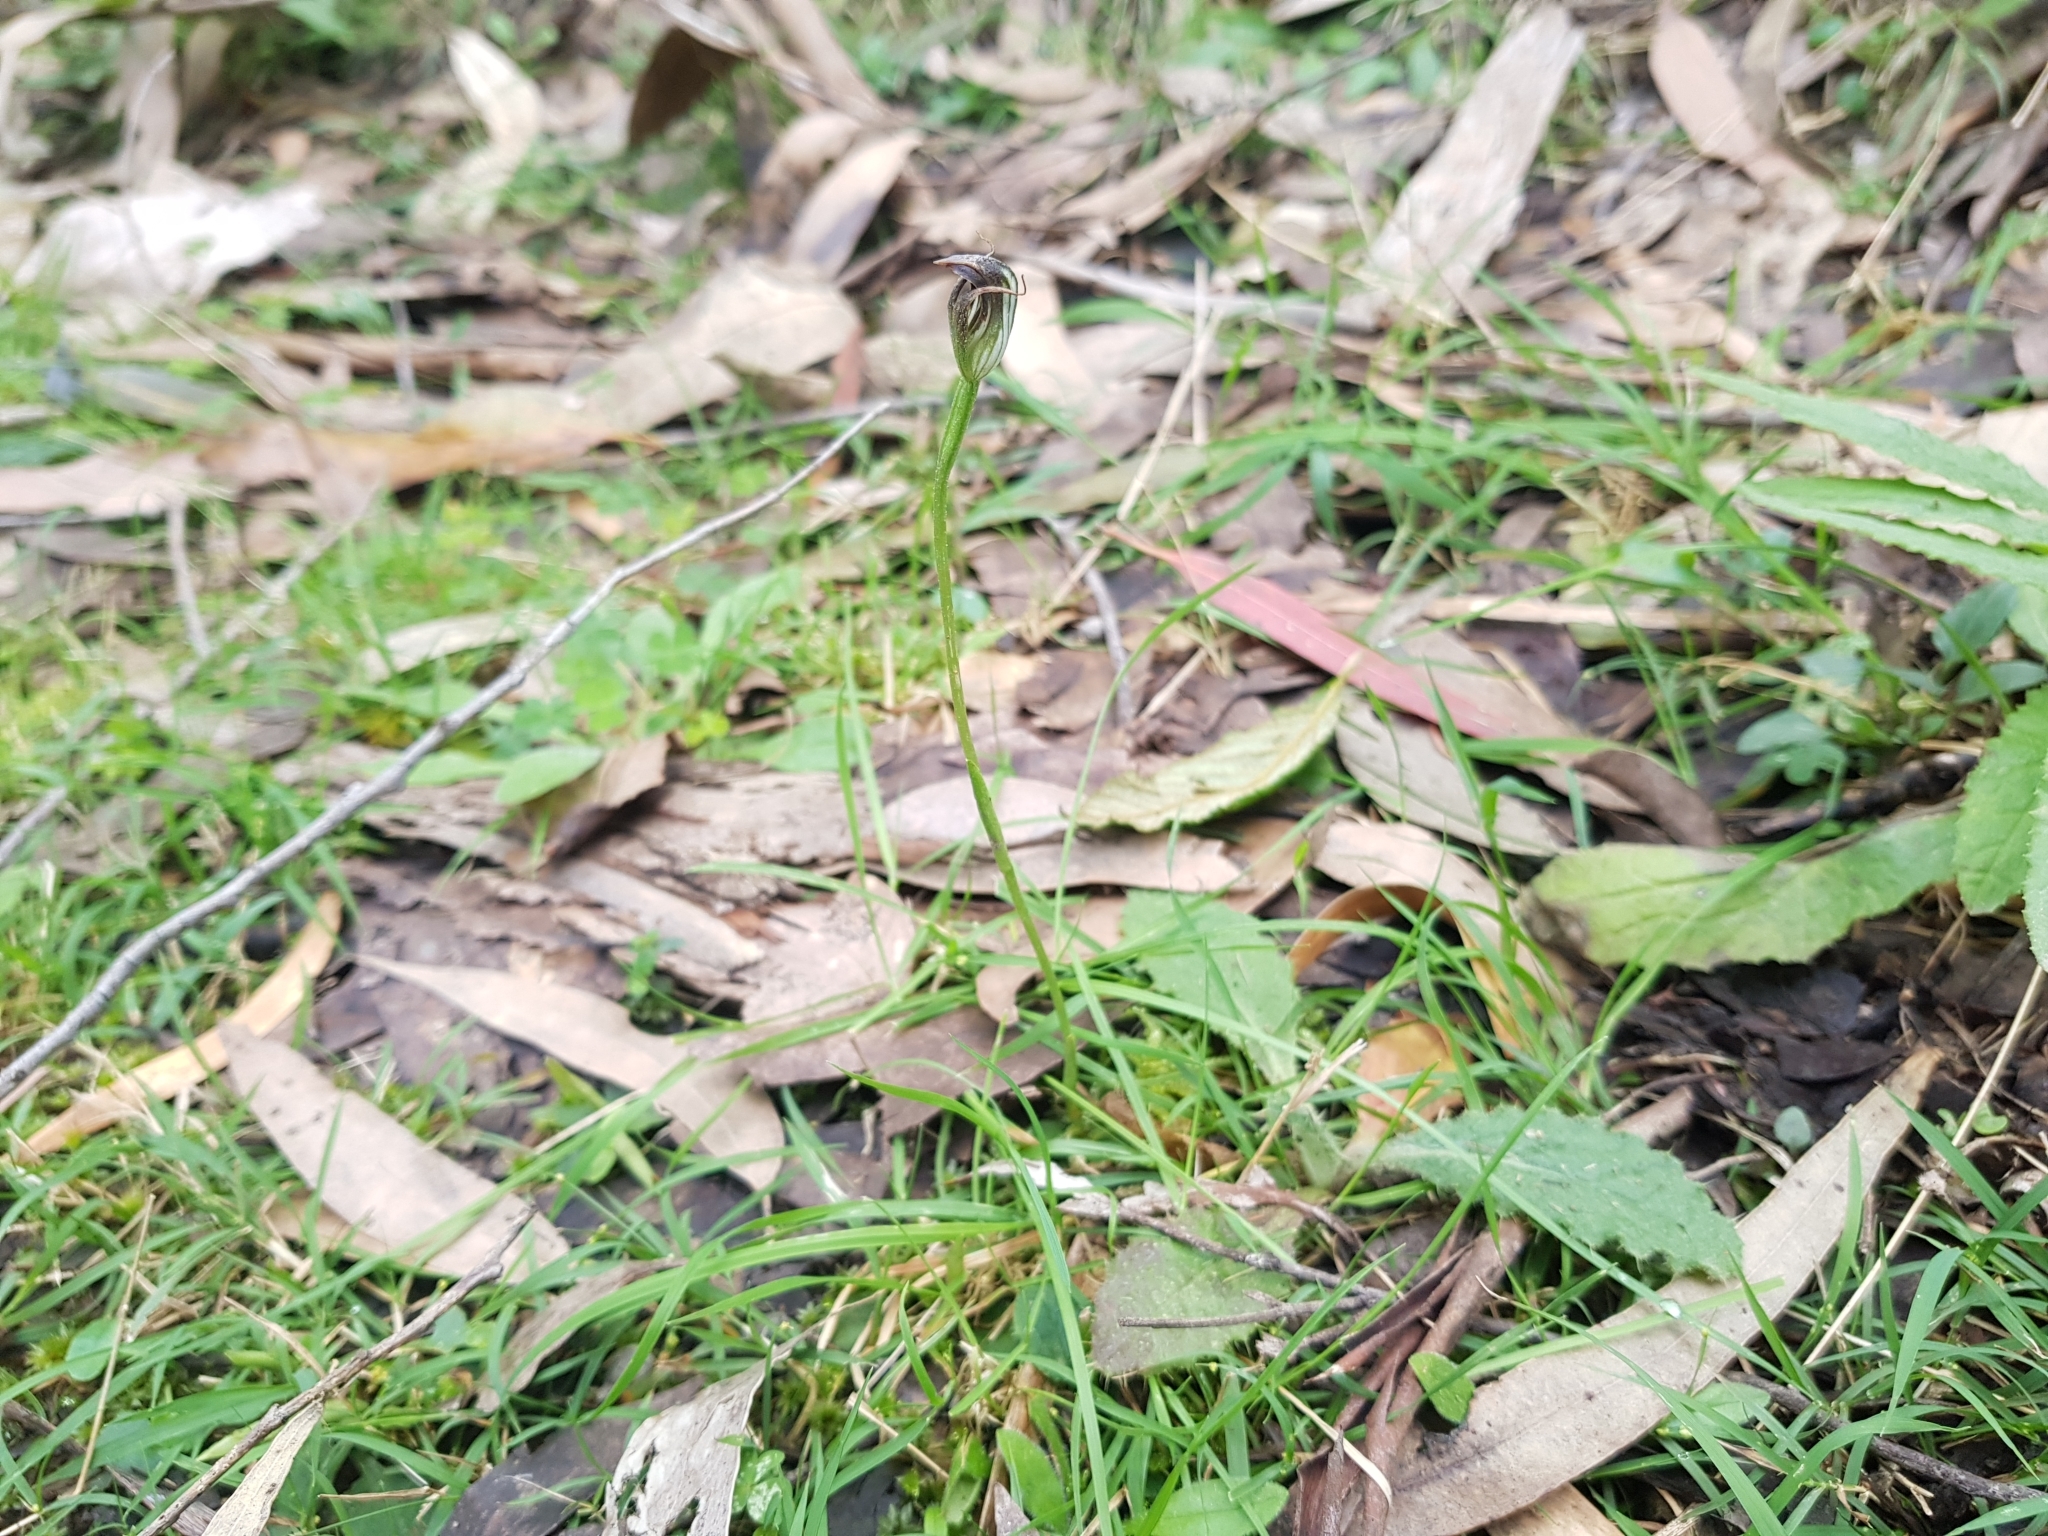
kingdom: Plantae
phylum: Tracheophyta
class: Liliopsida
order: Asparagales
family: Orchidaceae
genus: Pterostylis
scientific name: Pterostylis pedunculata
